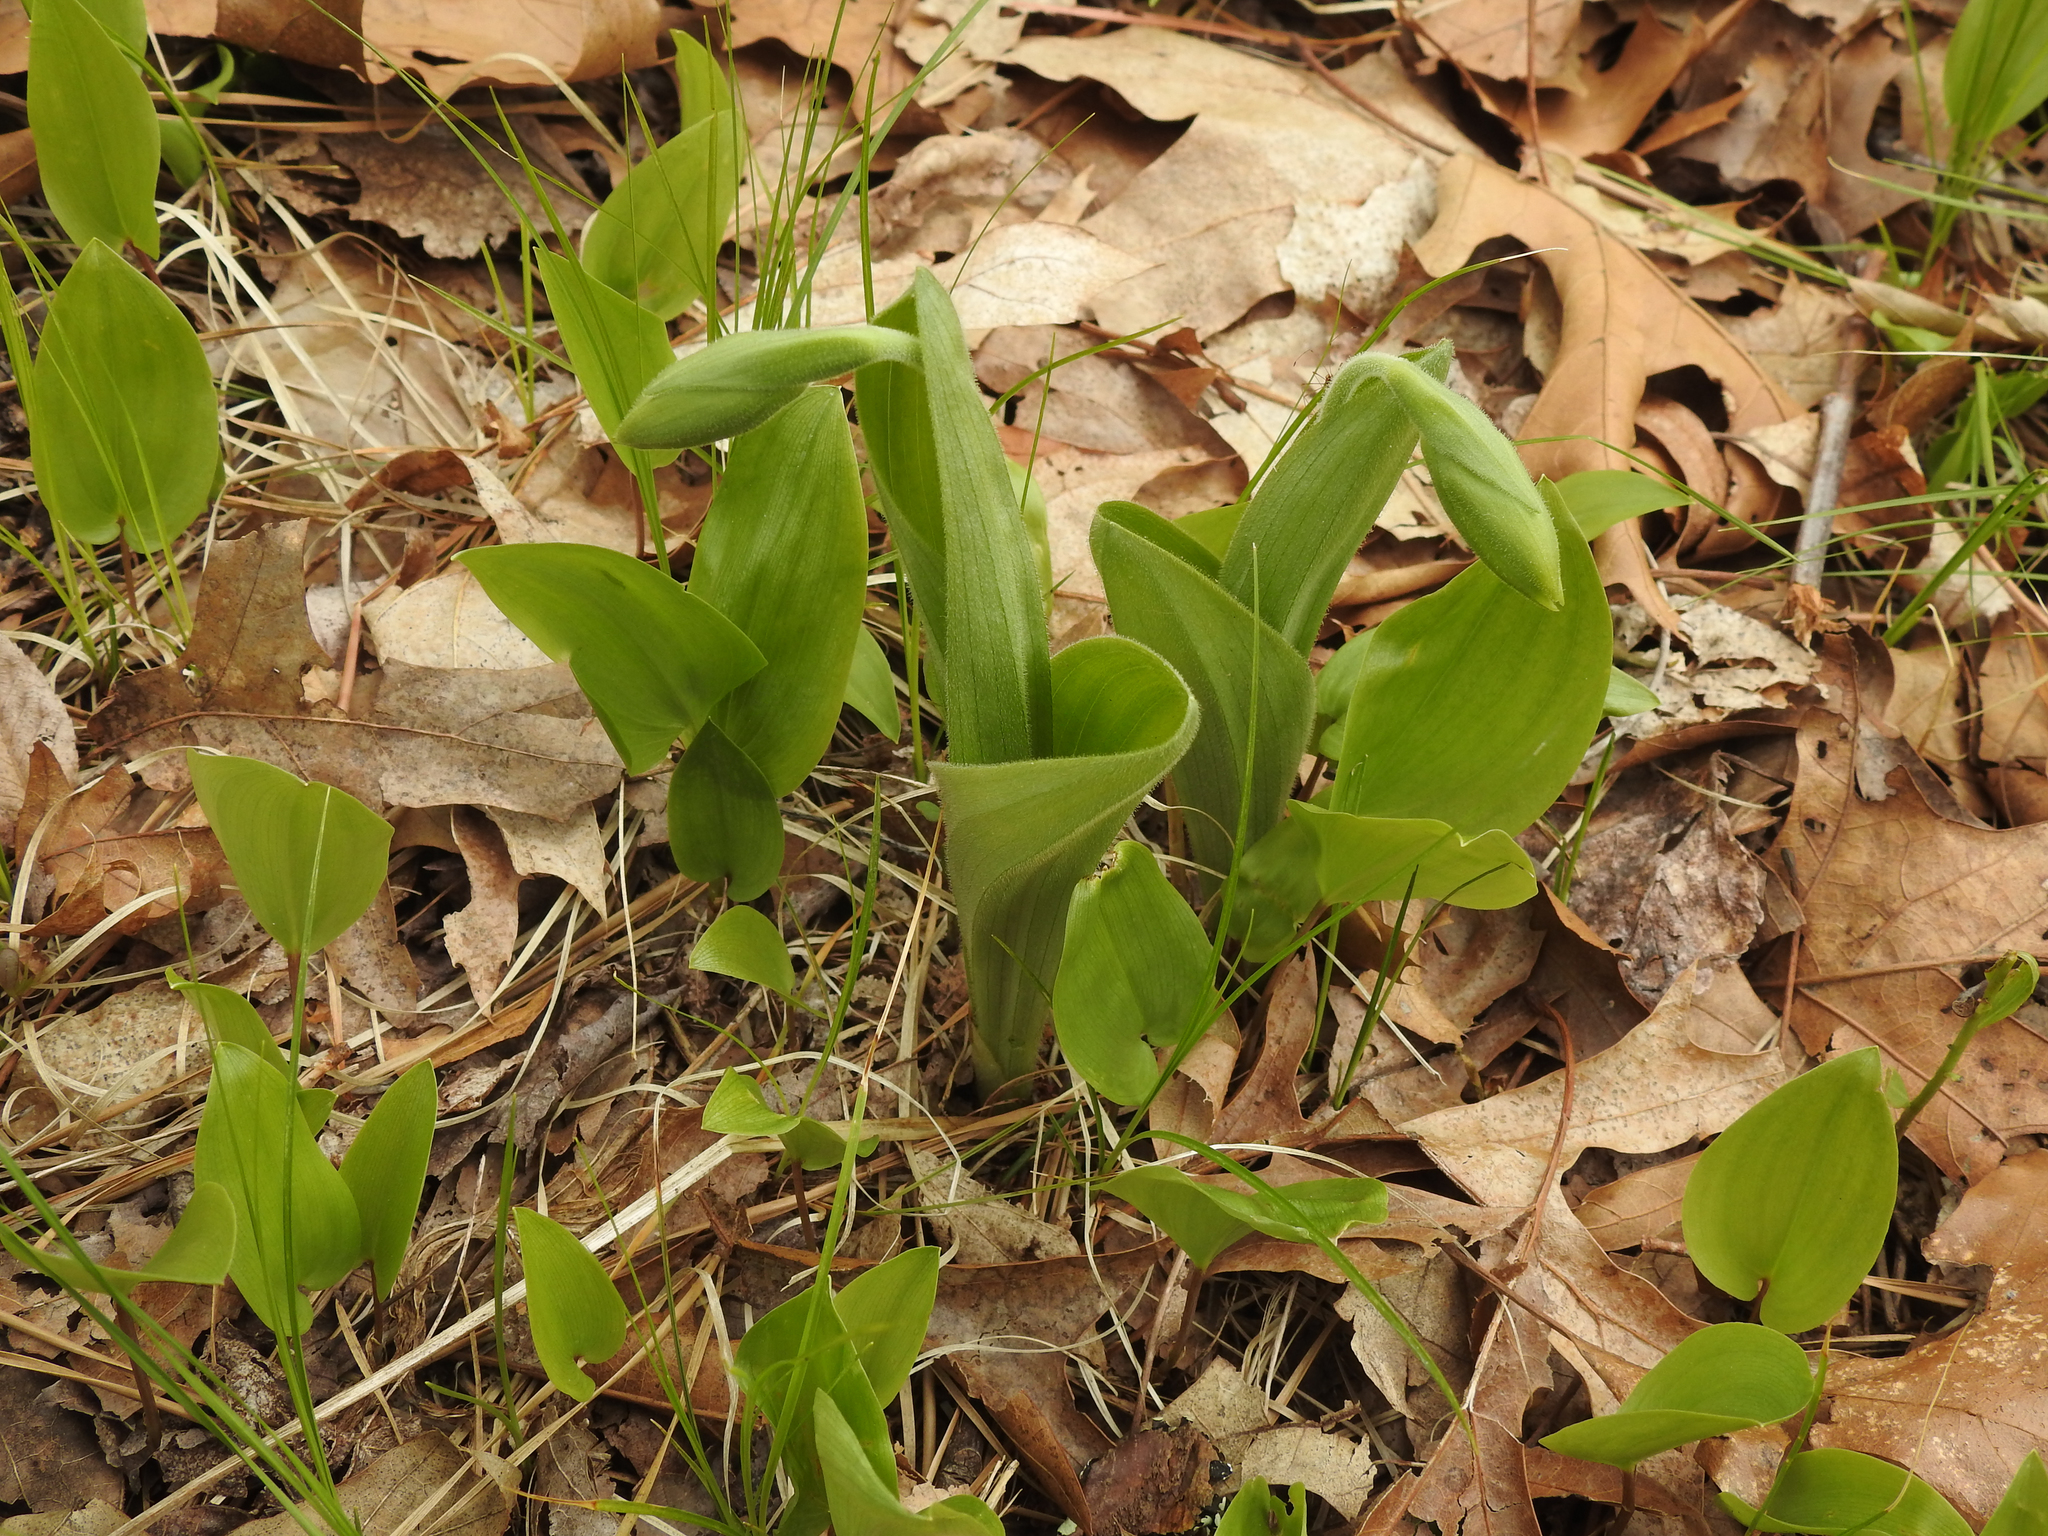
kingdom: Plantae
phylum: Tracheophyta
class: Liliopsida
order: Asparagales
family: Orchidaceae
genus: Cypripedium
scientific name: Cypripedium acaule
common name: Pink lady's-slipper
